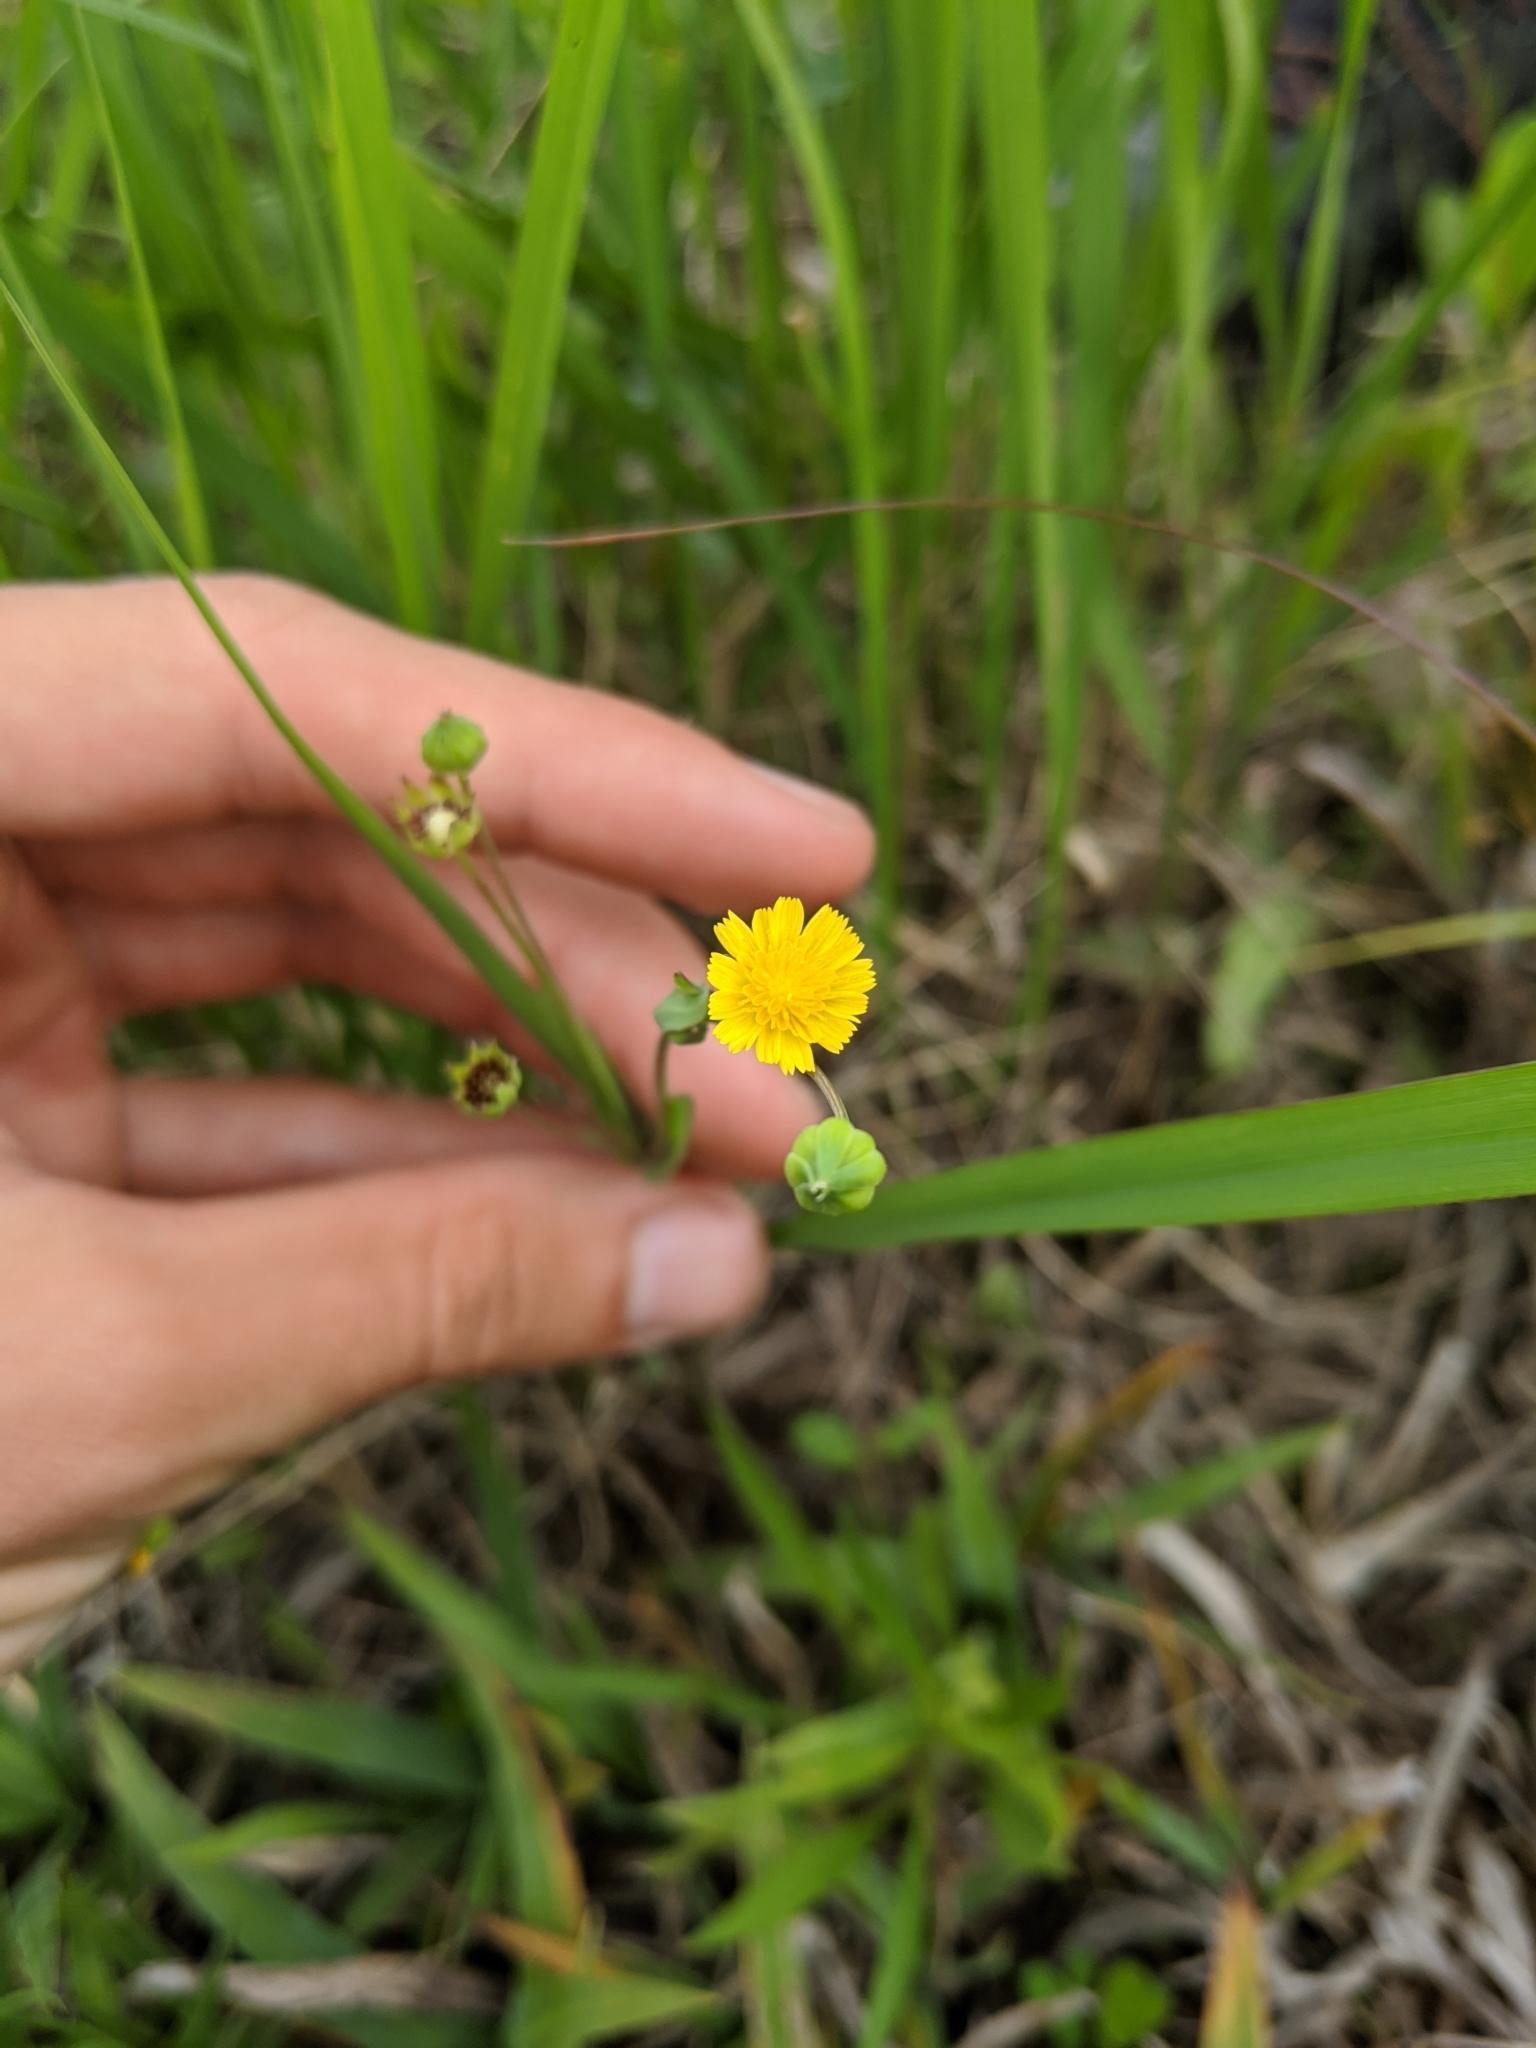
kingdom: Plantae
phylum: Tracheophyta
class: Magnoliopsida
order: Asterales
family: Asteraceae
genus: Krigia
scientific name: Krigia cespitosa
